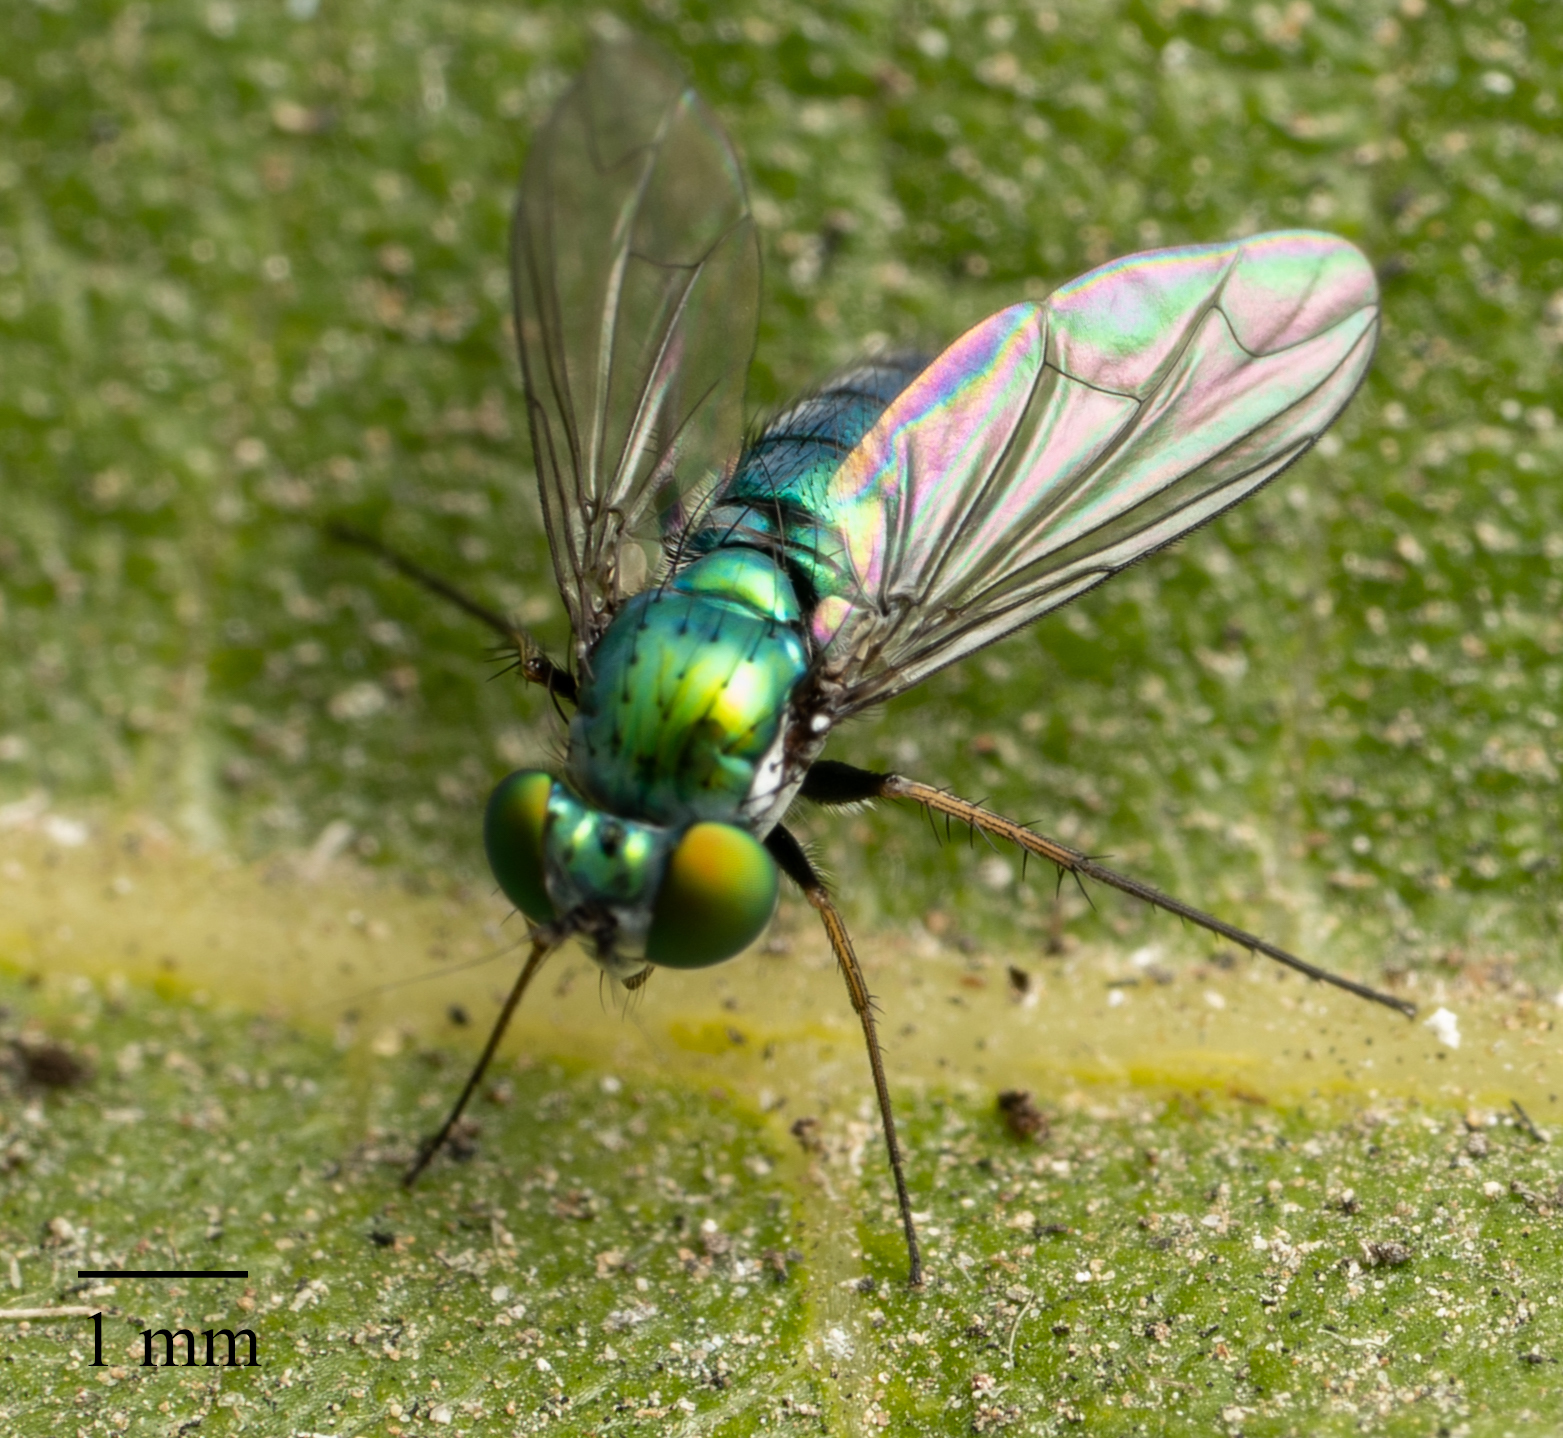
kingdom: Animalia
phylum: Arthropoda
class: Insecta
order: Diptera
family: Dolichopodidae
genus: Condylostylus
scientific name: Condylostylus longicornis
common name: Long-legged fly
